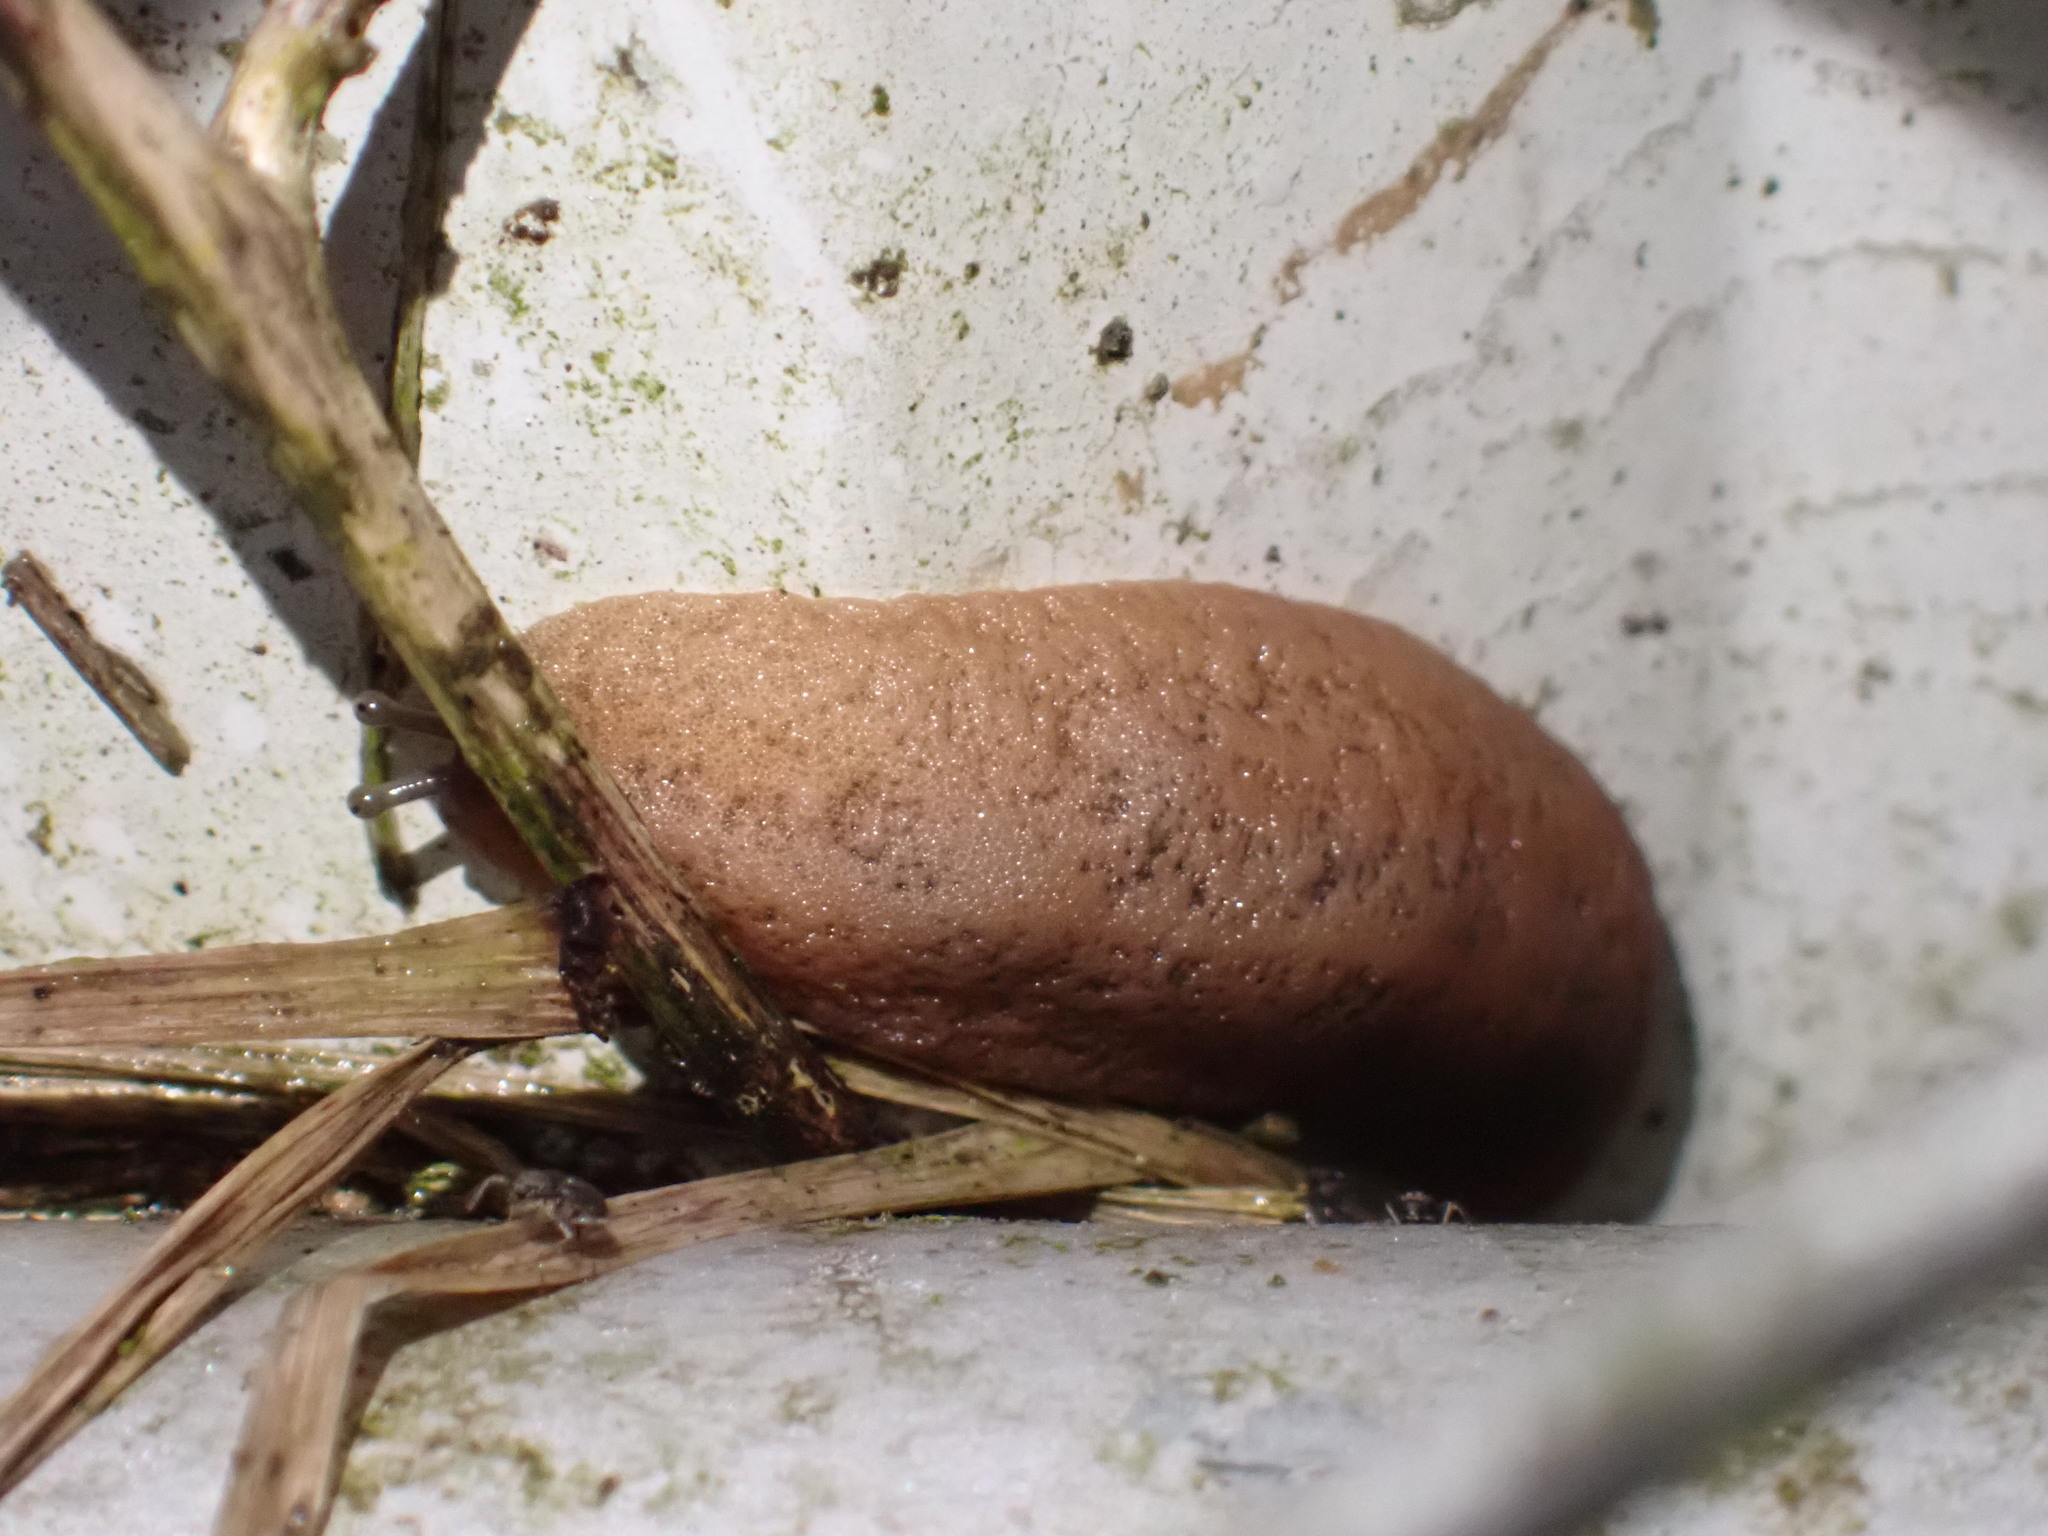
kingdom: Animalia
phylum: Mollusca
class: Gastropoda
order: Systellommatophora
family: Veronicellidae
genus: Sarasinula
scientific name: Sarasinula plebeia
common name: Caribbean leatherleaf
